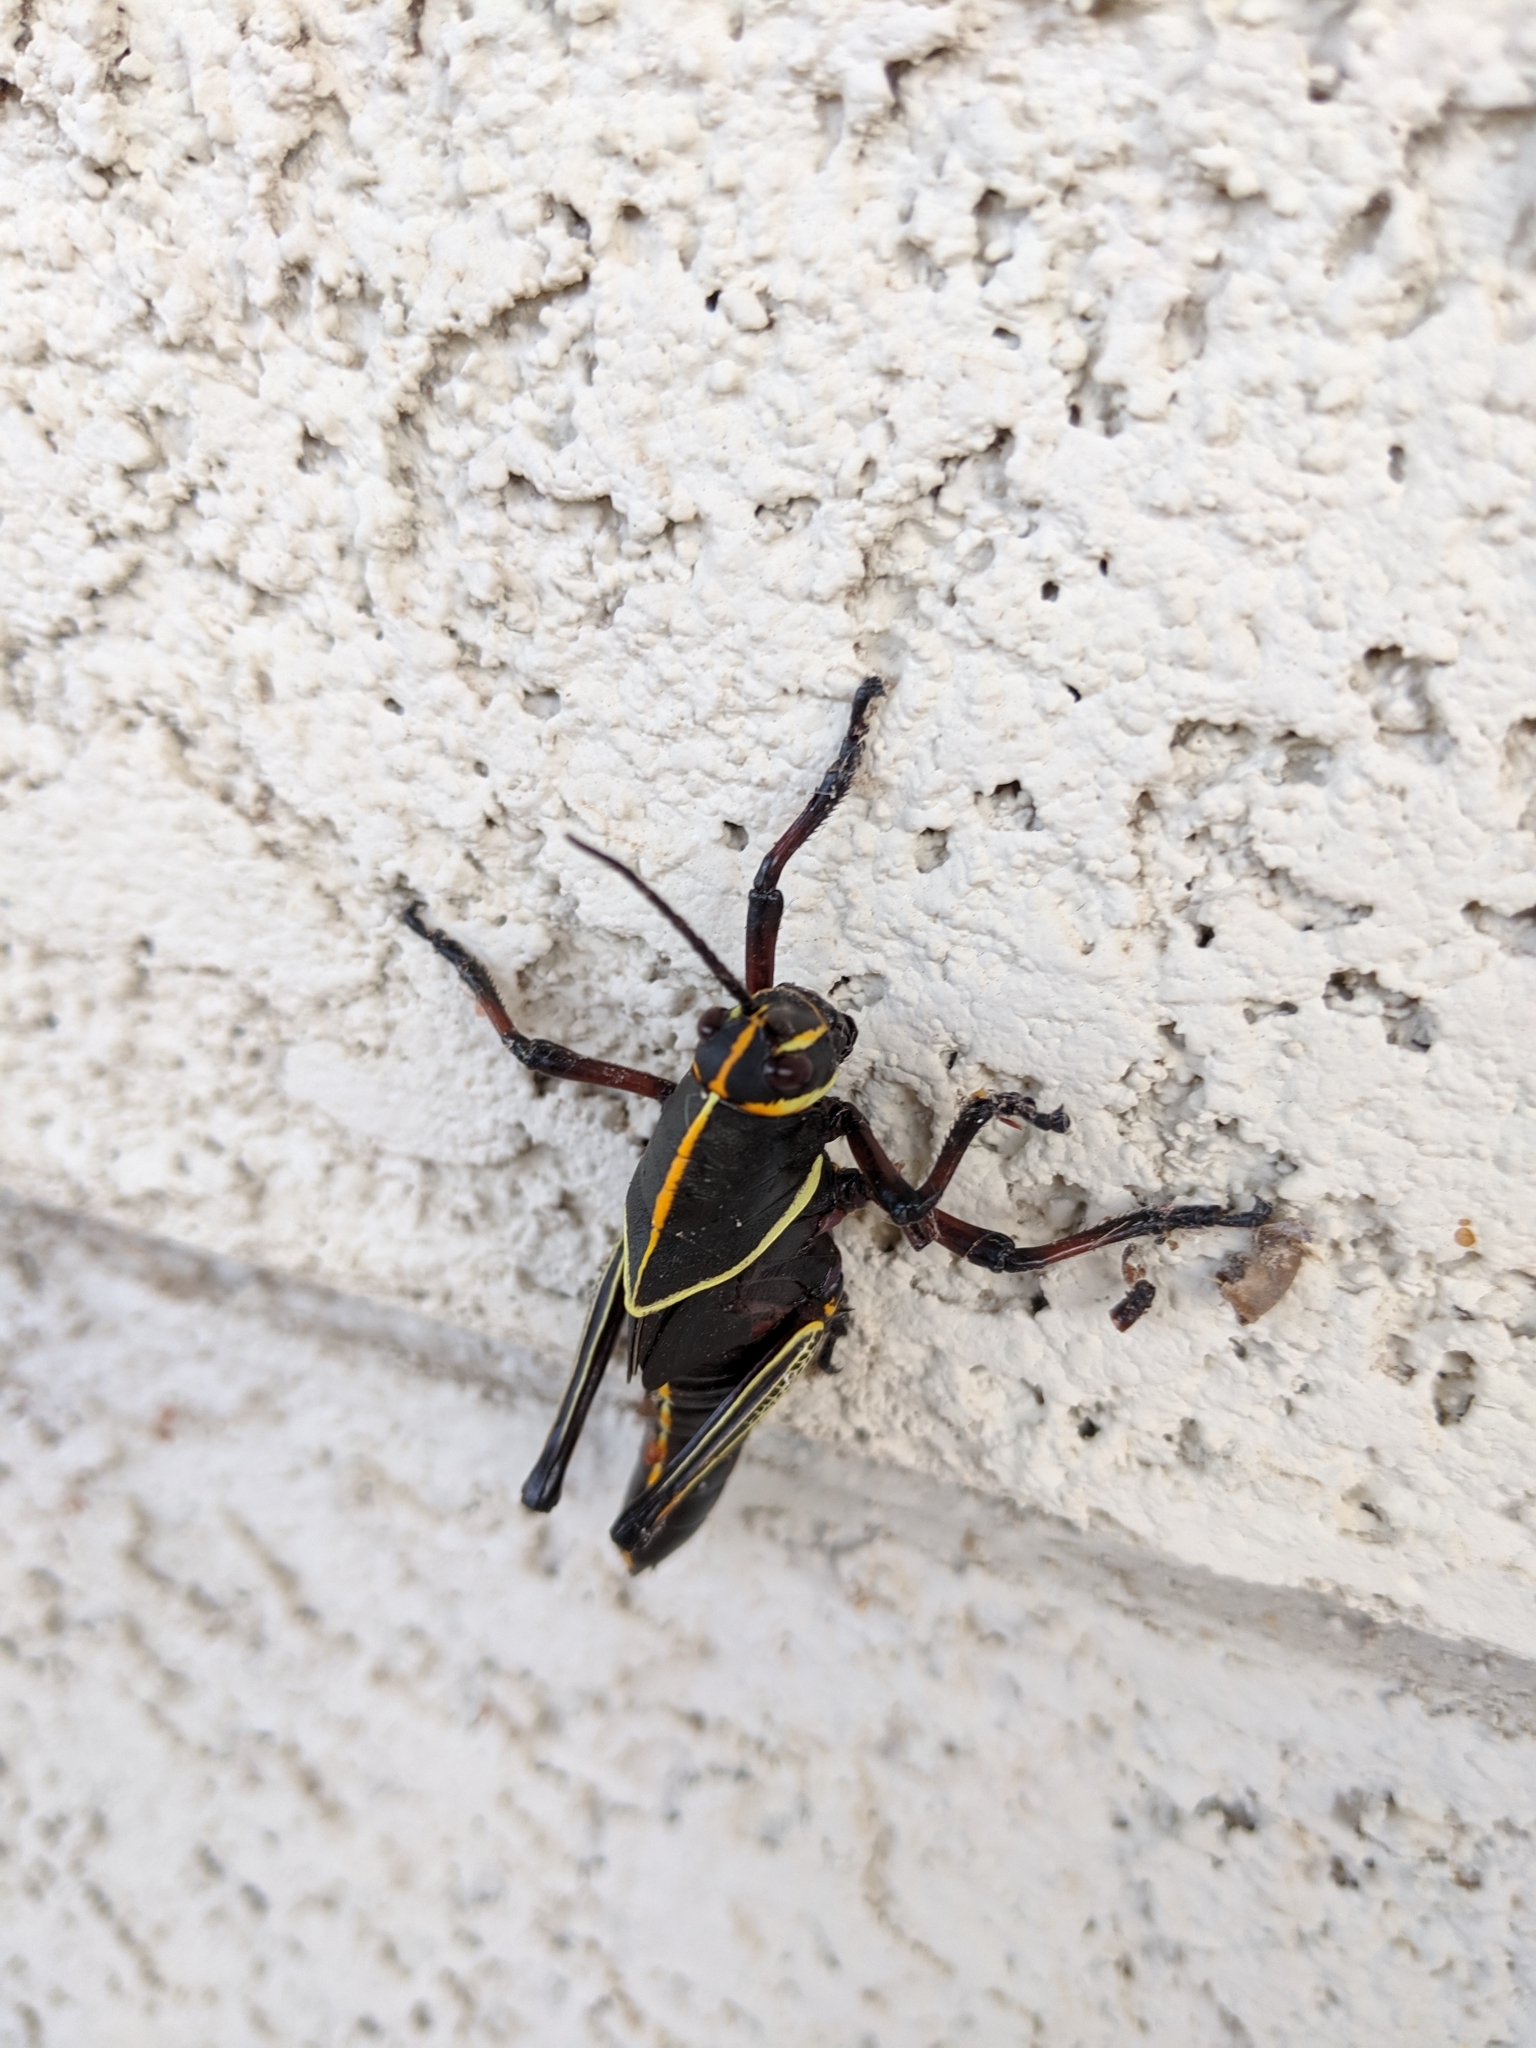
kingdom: Animalia
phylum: Arthropoda
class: Insecta
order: Orthoptera
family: Romaleidae
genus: Romalea
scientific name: Romalea
